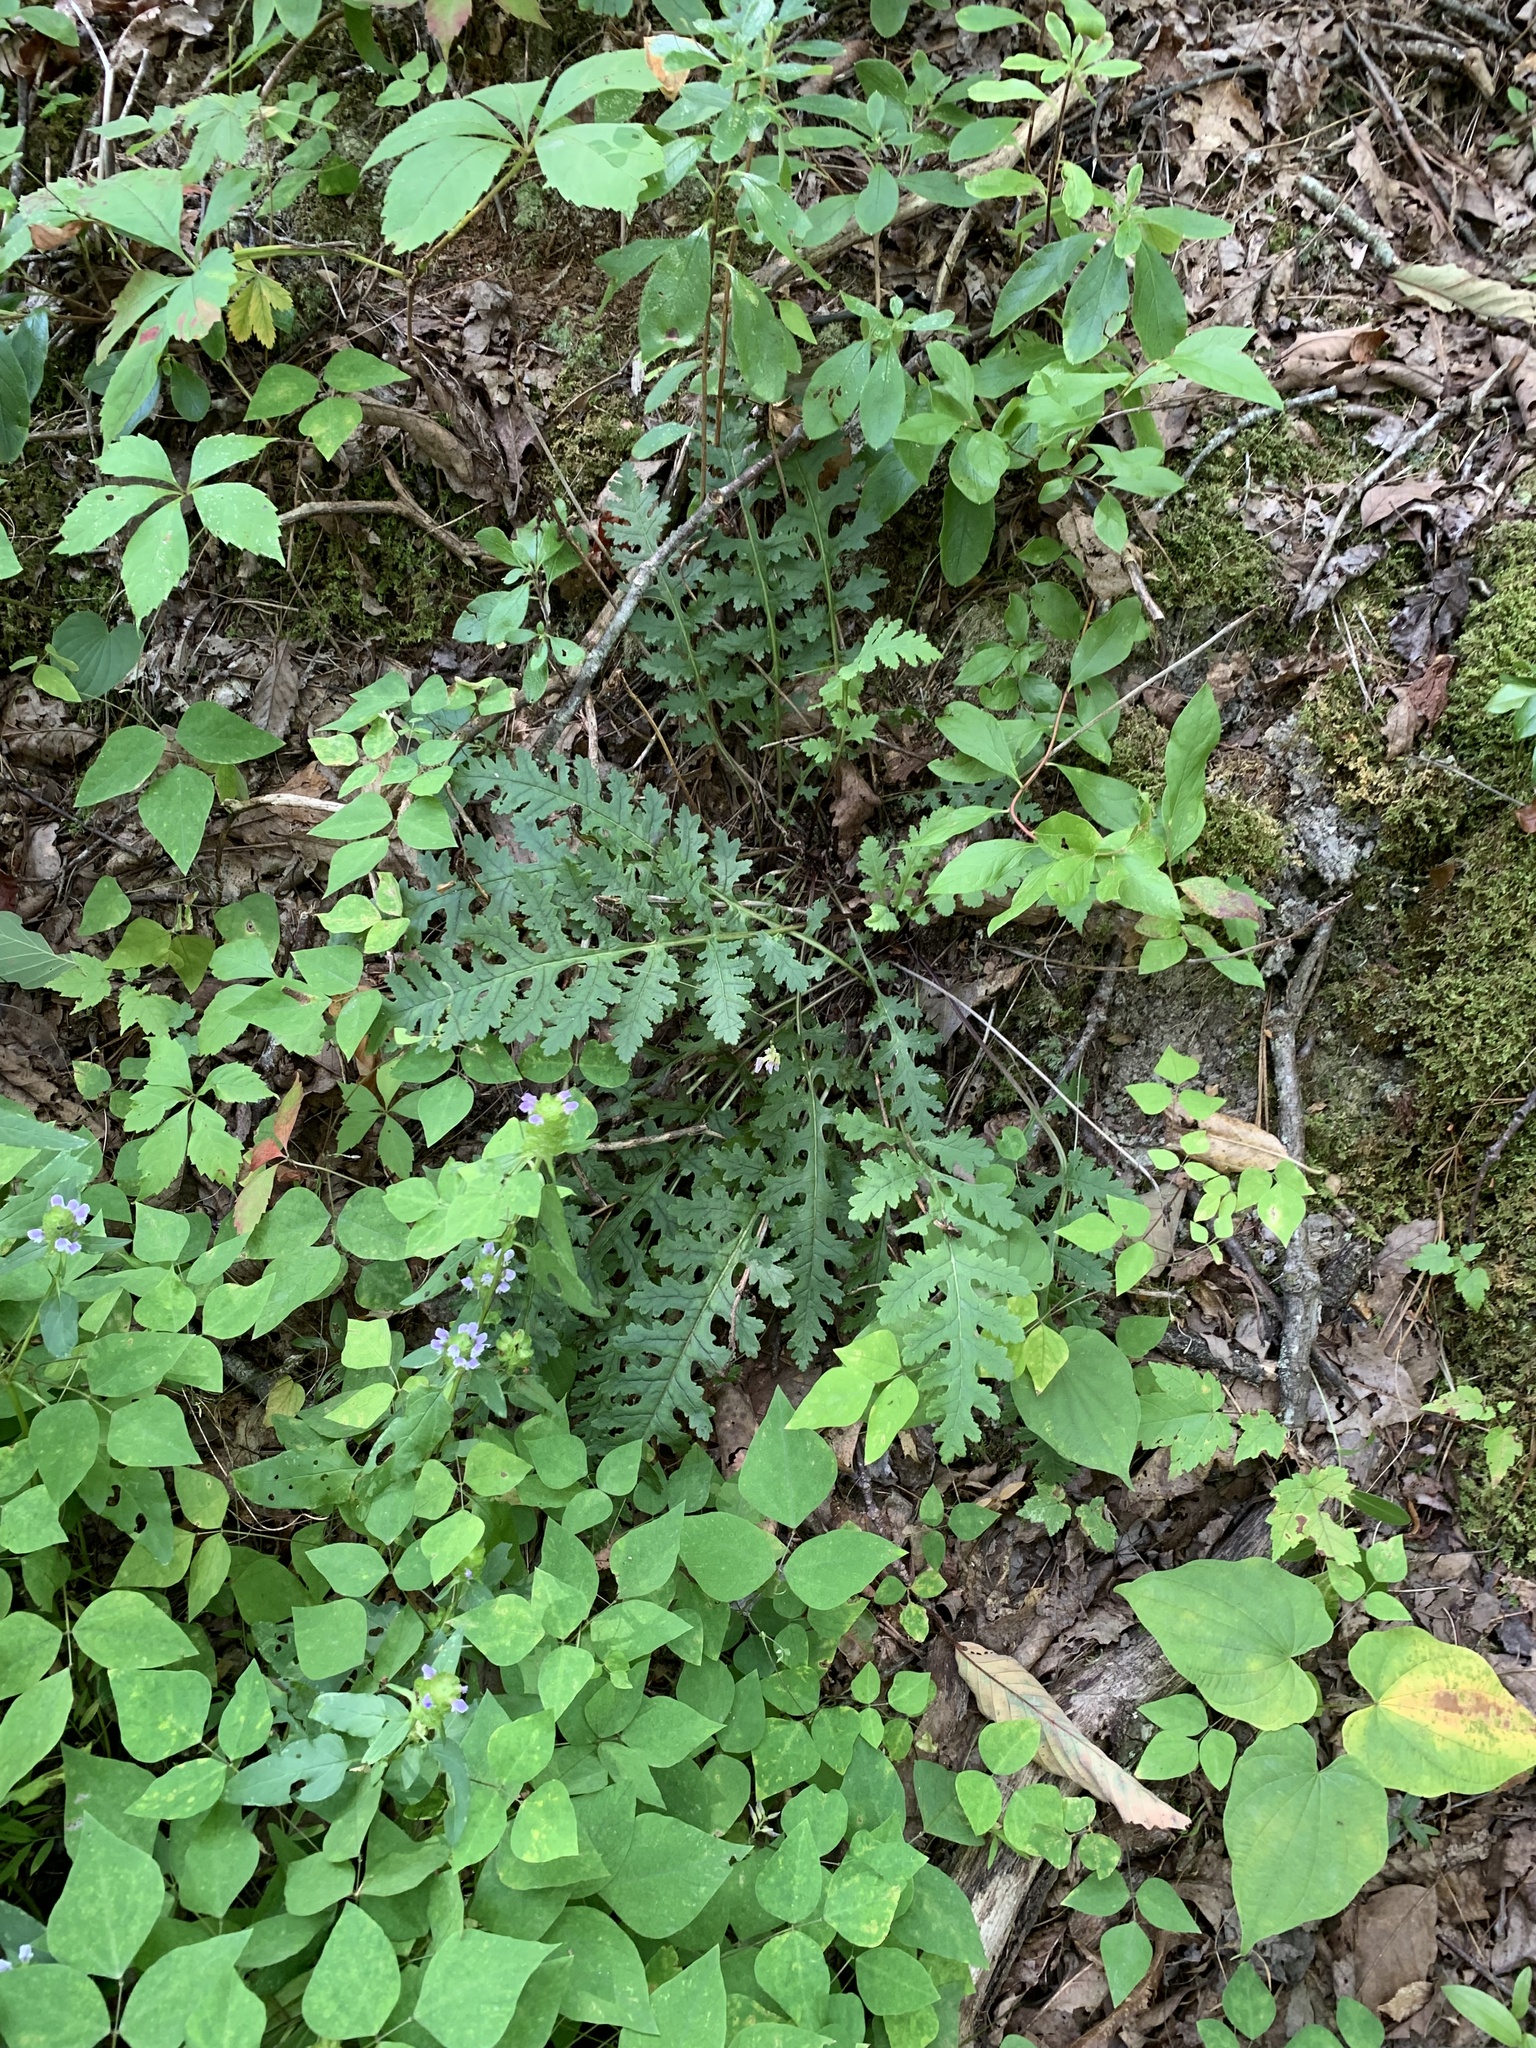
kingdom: Plantae
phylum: Tracheophyta
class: Magnoliopsida
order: Lamiales
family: Orobanchaceae
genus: Pedicularis
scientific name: Pedicularis canadensis
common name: Early lousewort
